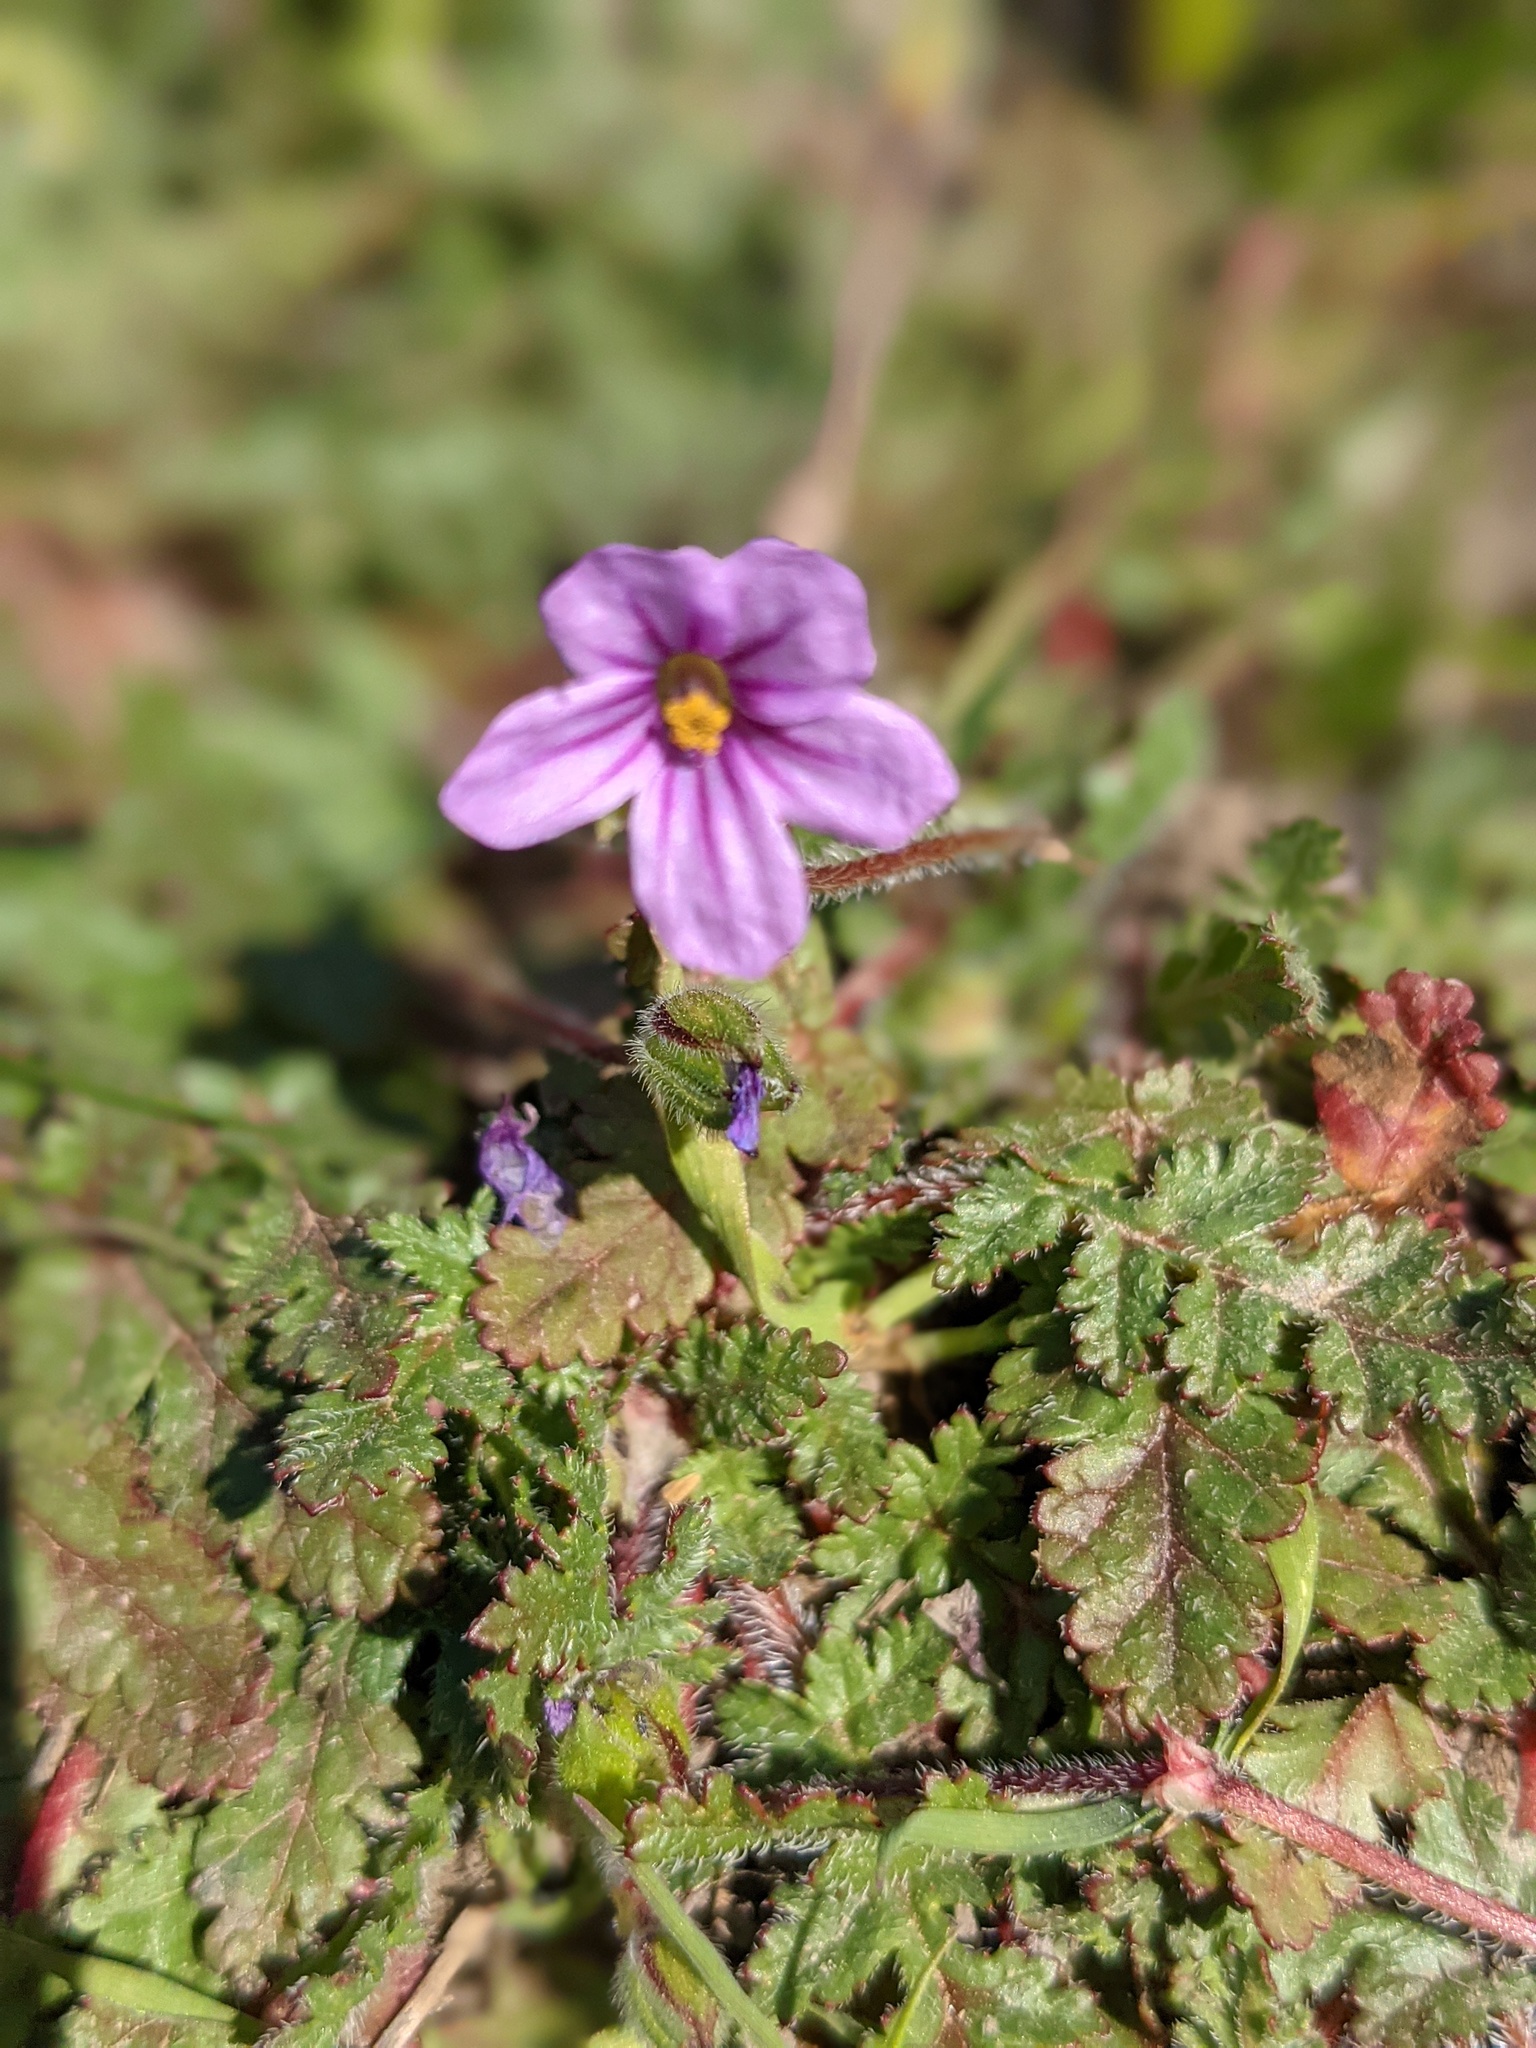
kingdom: Plantae
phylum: Tracheophyta
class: Magnoliopsida
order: Geraniales
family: Geraniaceae
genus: Erodium
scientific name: Erodium botrys
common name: Mediterranean stork's-bill
